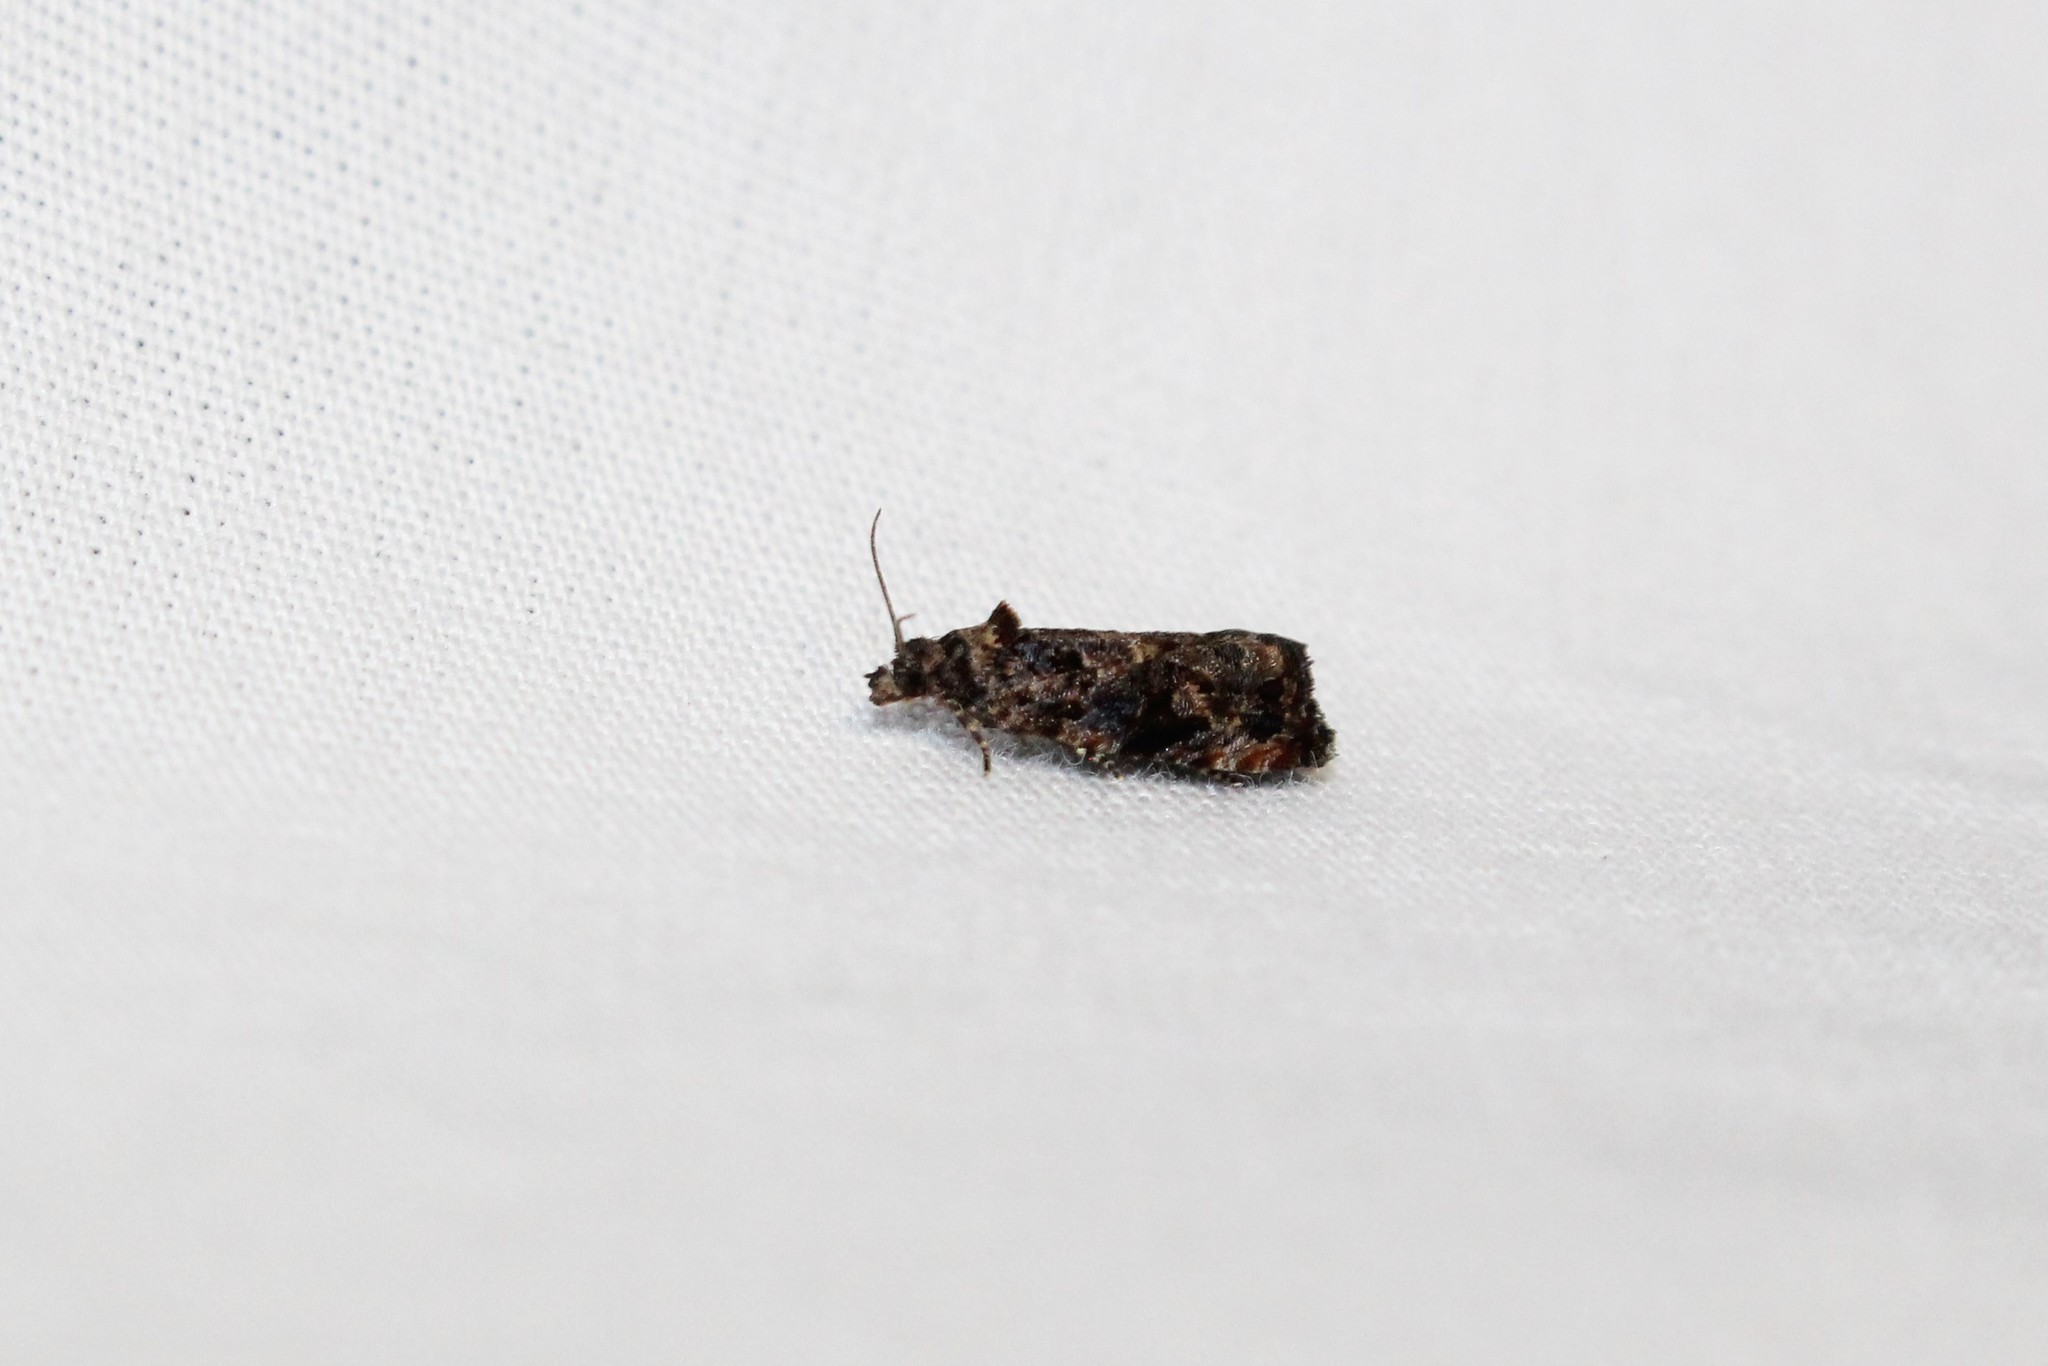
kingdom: Animalia
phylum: Arthropoda
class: Insecta
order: Lepidoptera
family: Tortricidae
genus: Endothenia
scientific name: Endothenia hebesana
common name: Verbena bud moth
